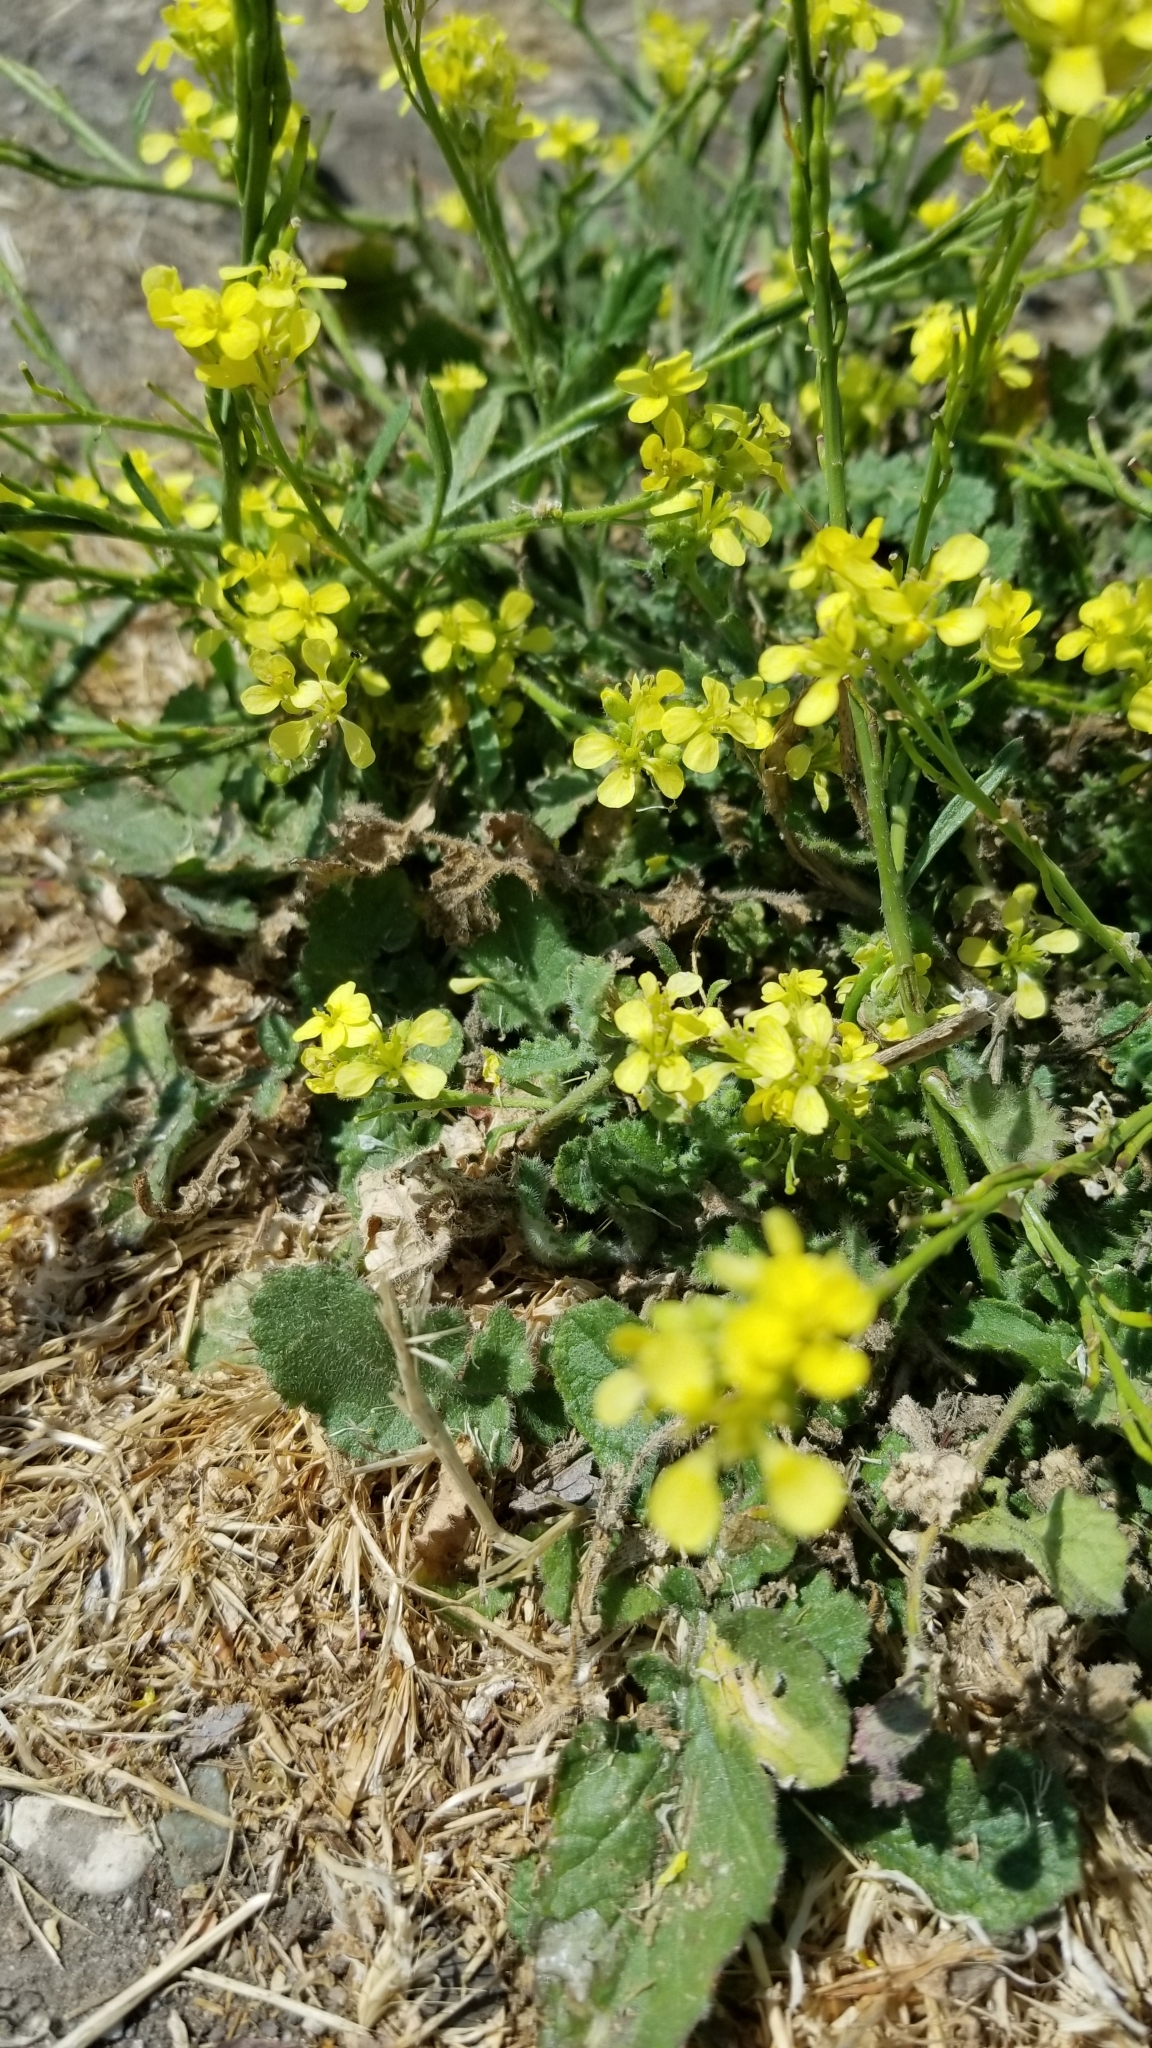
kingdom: Plantae
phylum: Tracheophyta
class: Magnoliopsida
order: Brassicales
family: Brassicaceae
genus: Hirschfeldia
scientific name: Hirschfeldia incana
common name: Hoary mustard
